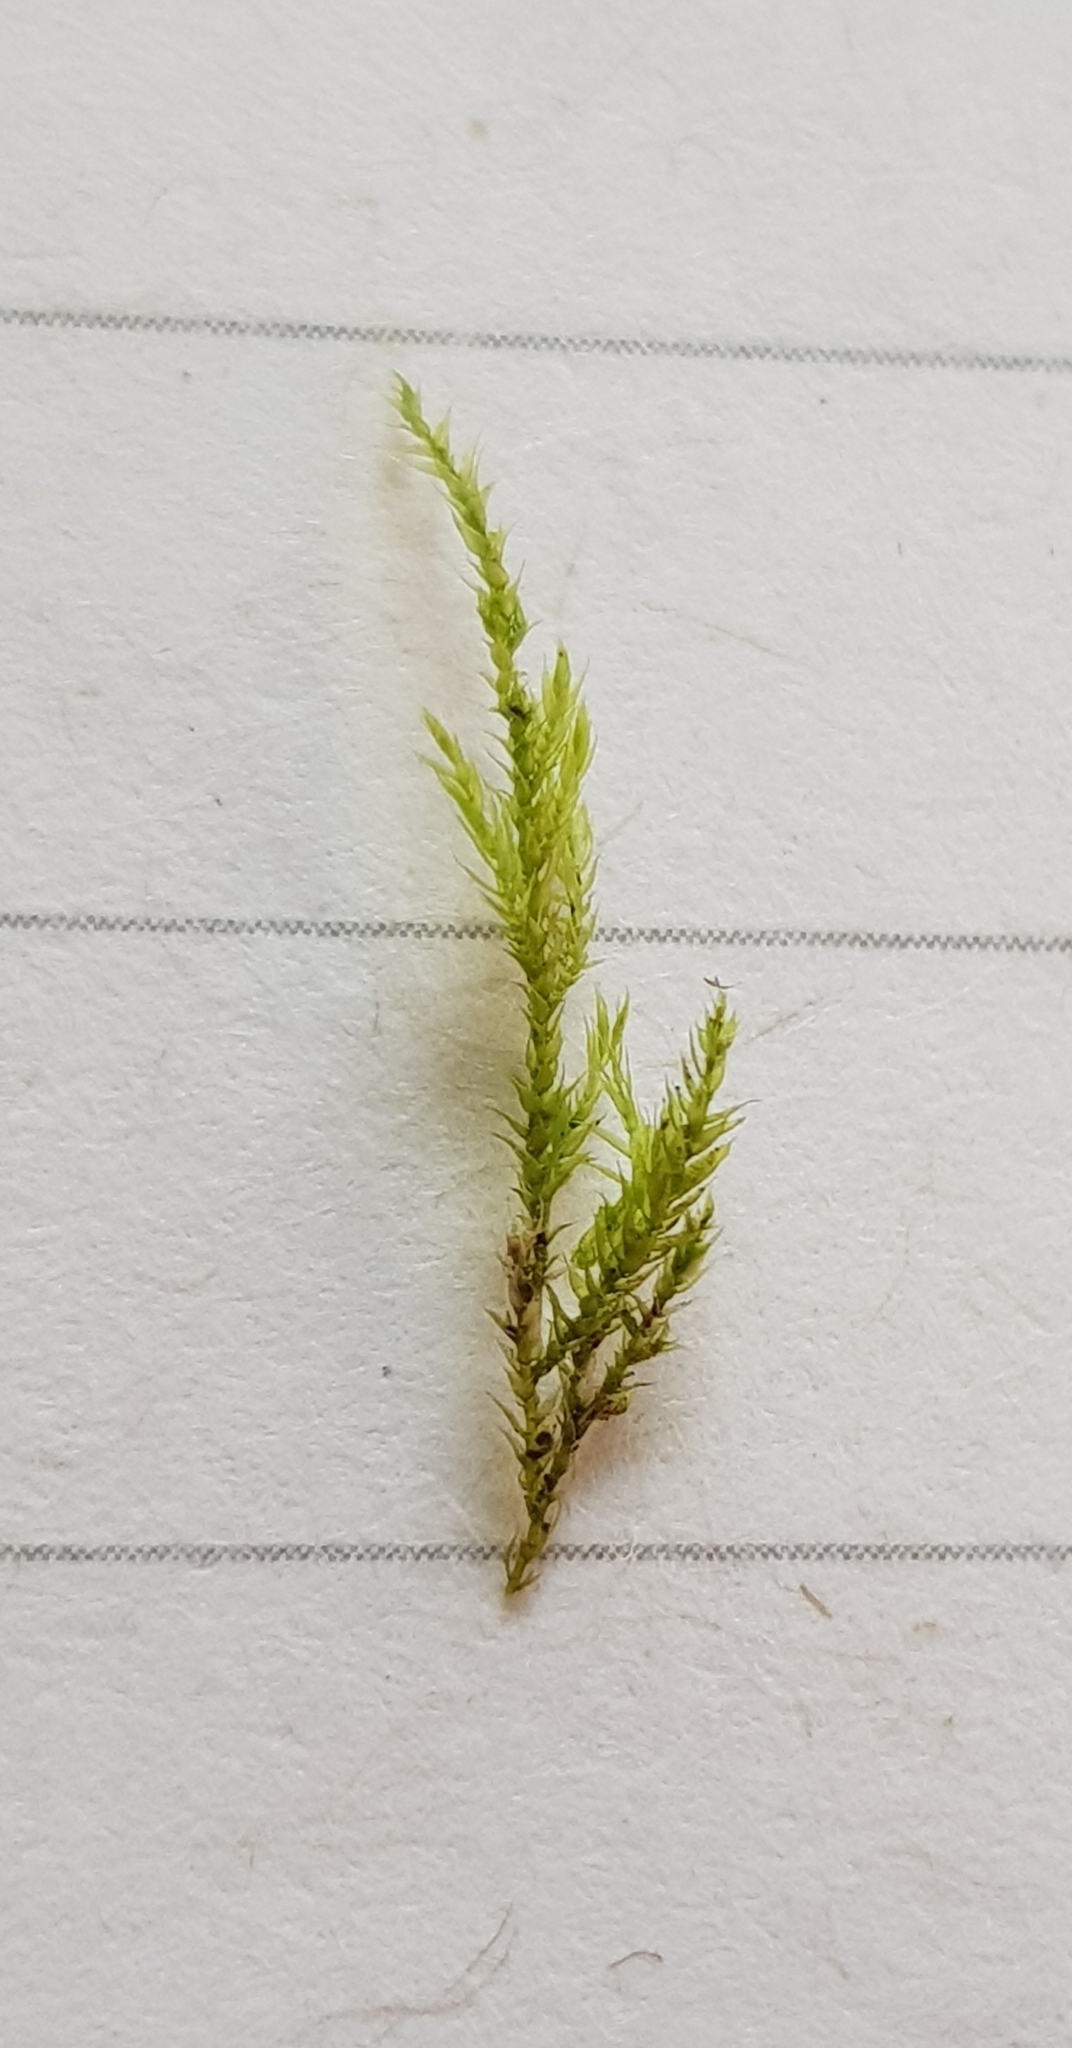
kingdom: Plantae
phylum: Bryophyta
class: Bryopsida
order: Hypnales
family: Amblystegiaceae
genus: Amblystegium
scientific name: Amblystegium serpens
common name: Jurkatzka's feather moss
